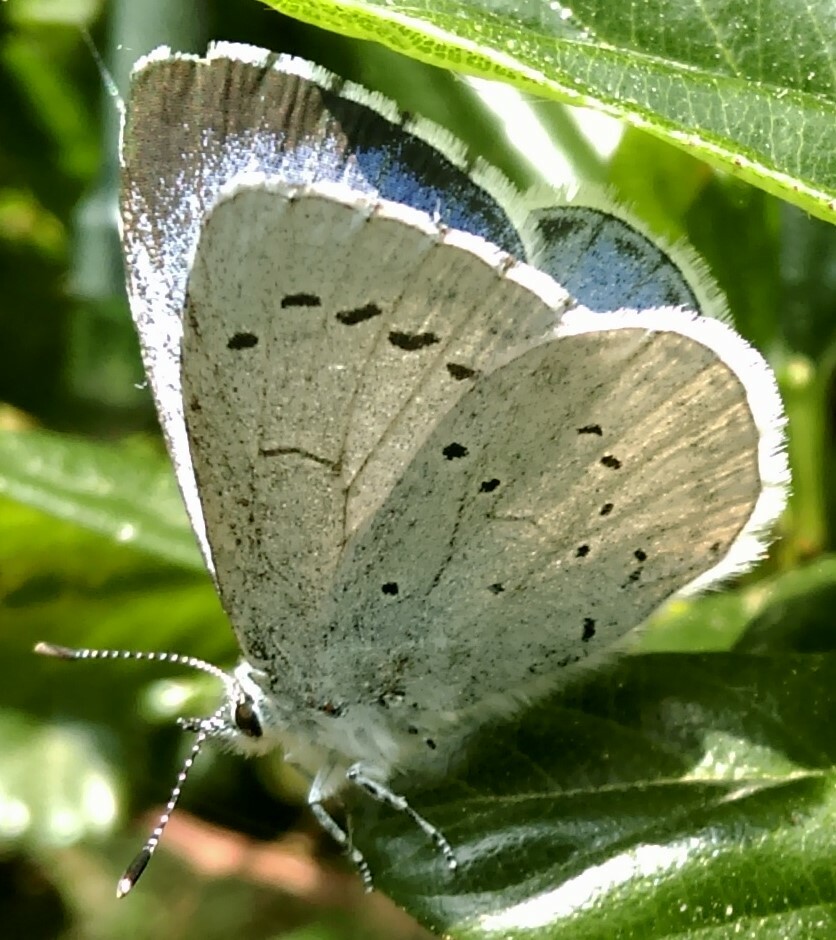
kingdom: Animalia
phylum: Arthropoda
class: Insecta
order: Lepidoptera
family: Lycaenidae
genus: Celastrina
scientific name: Celastrina argiolus
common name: Holly blue
